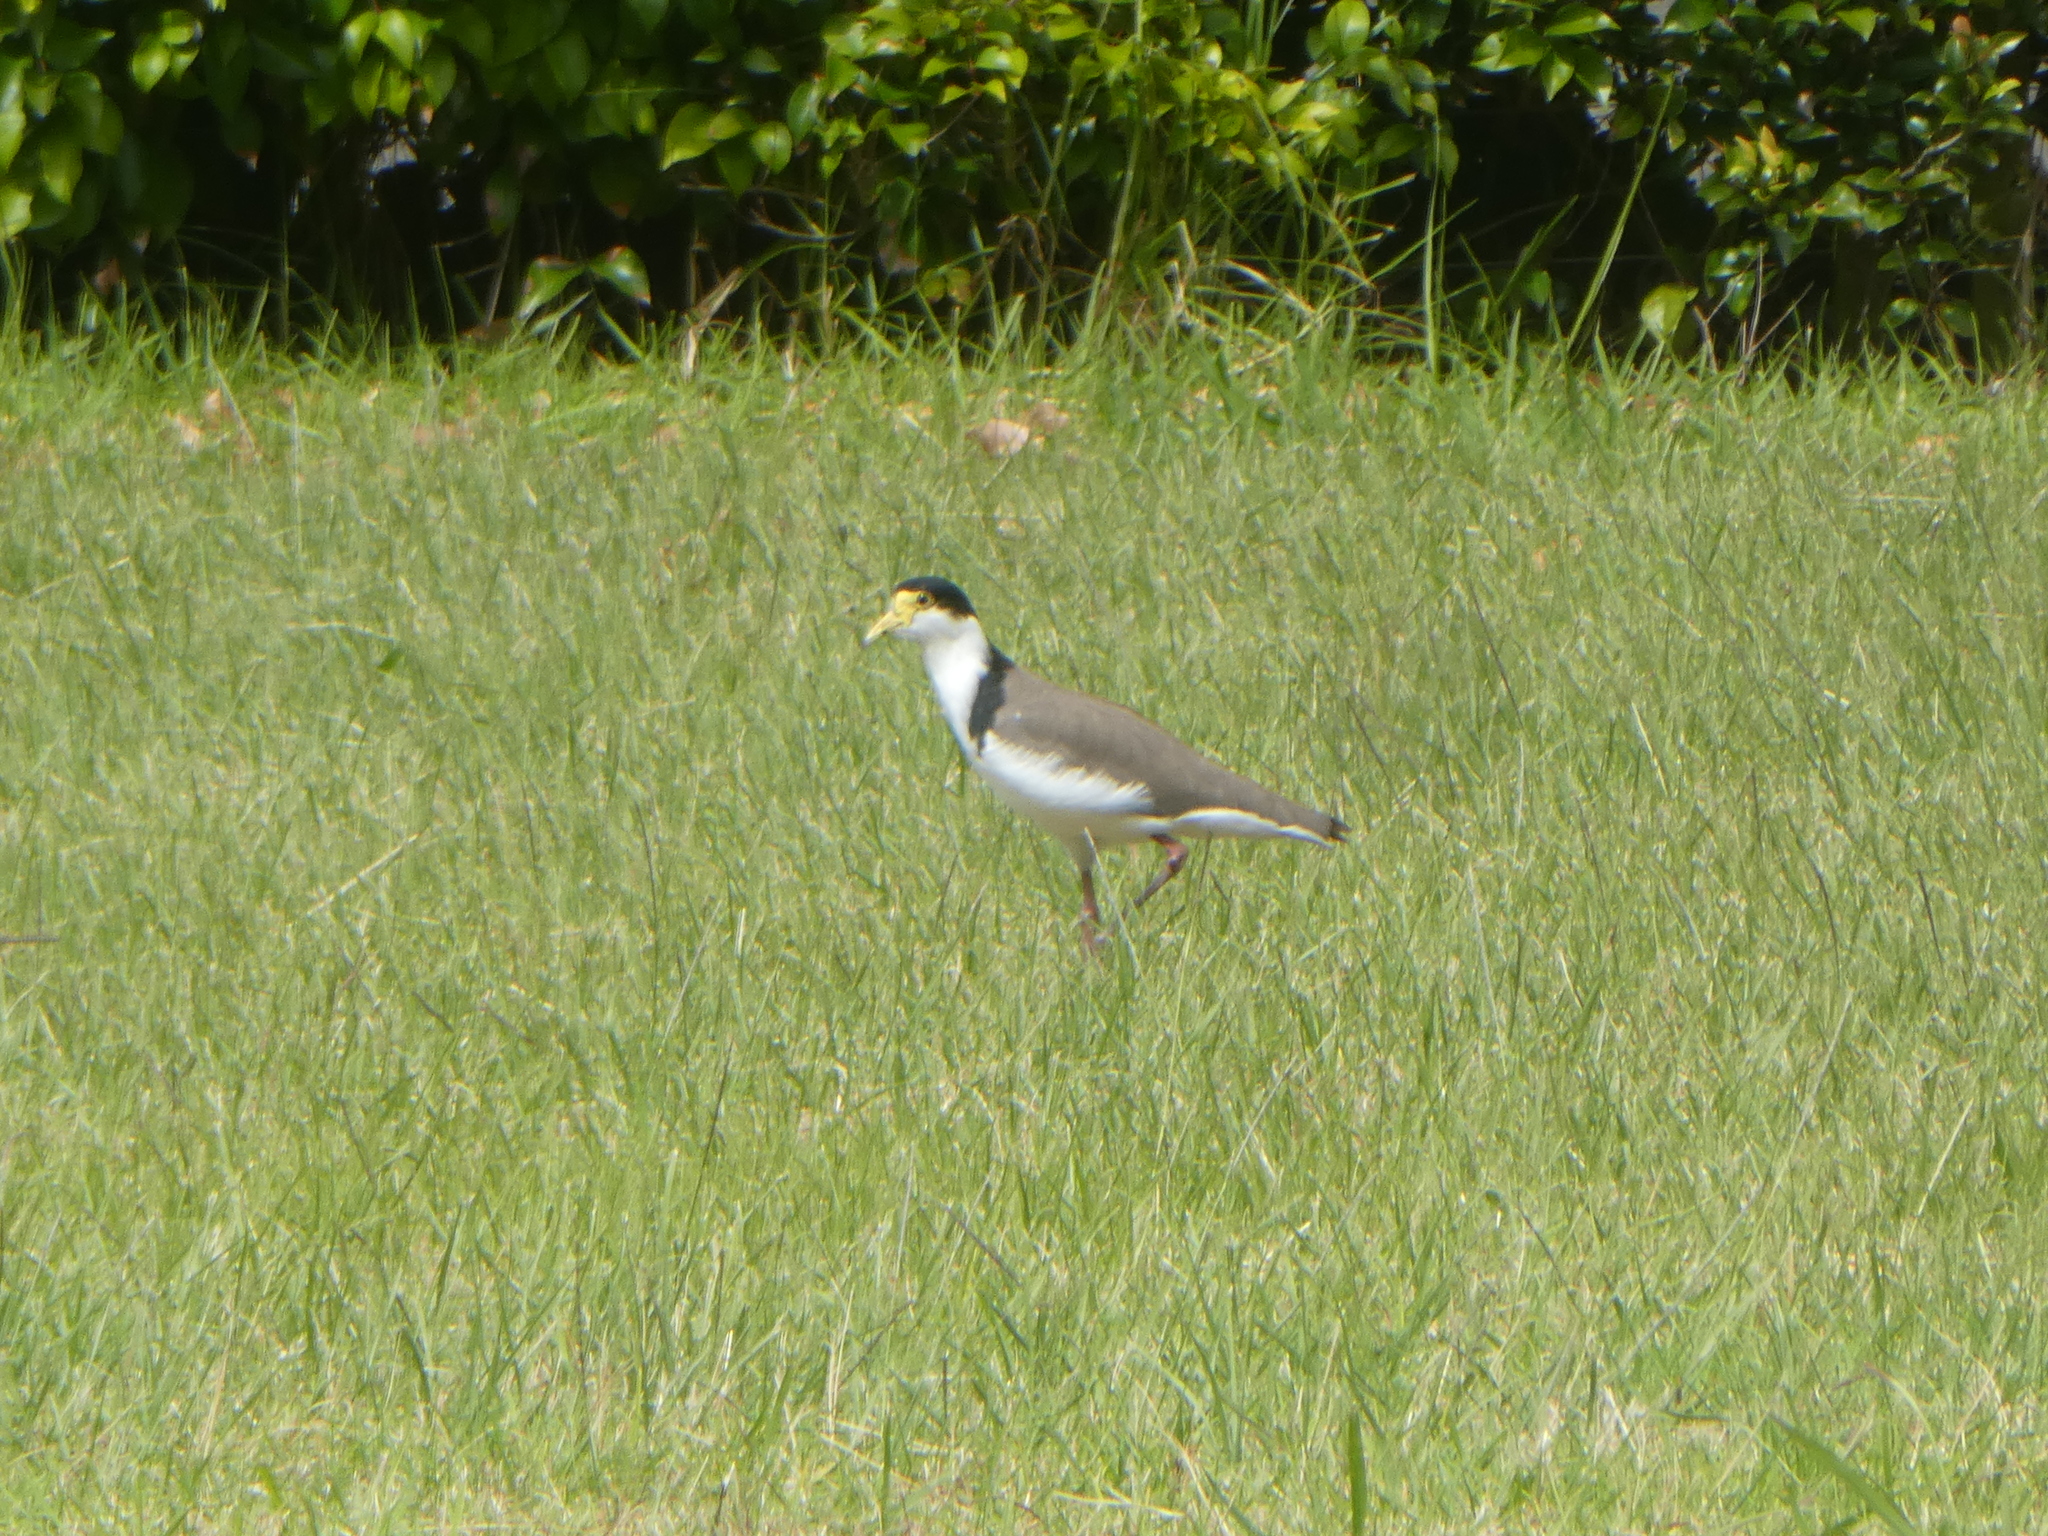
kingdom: Animalia
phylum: Chordata
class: Aves
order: Charadriiformes
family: Charadriidae
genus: Vanellus
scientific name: Vanellus miles
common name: Masked lapwing
